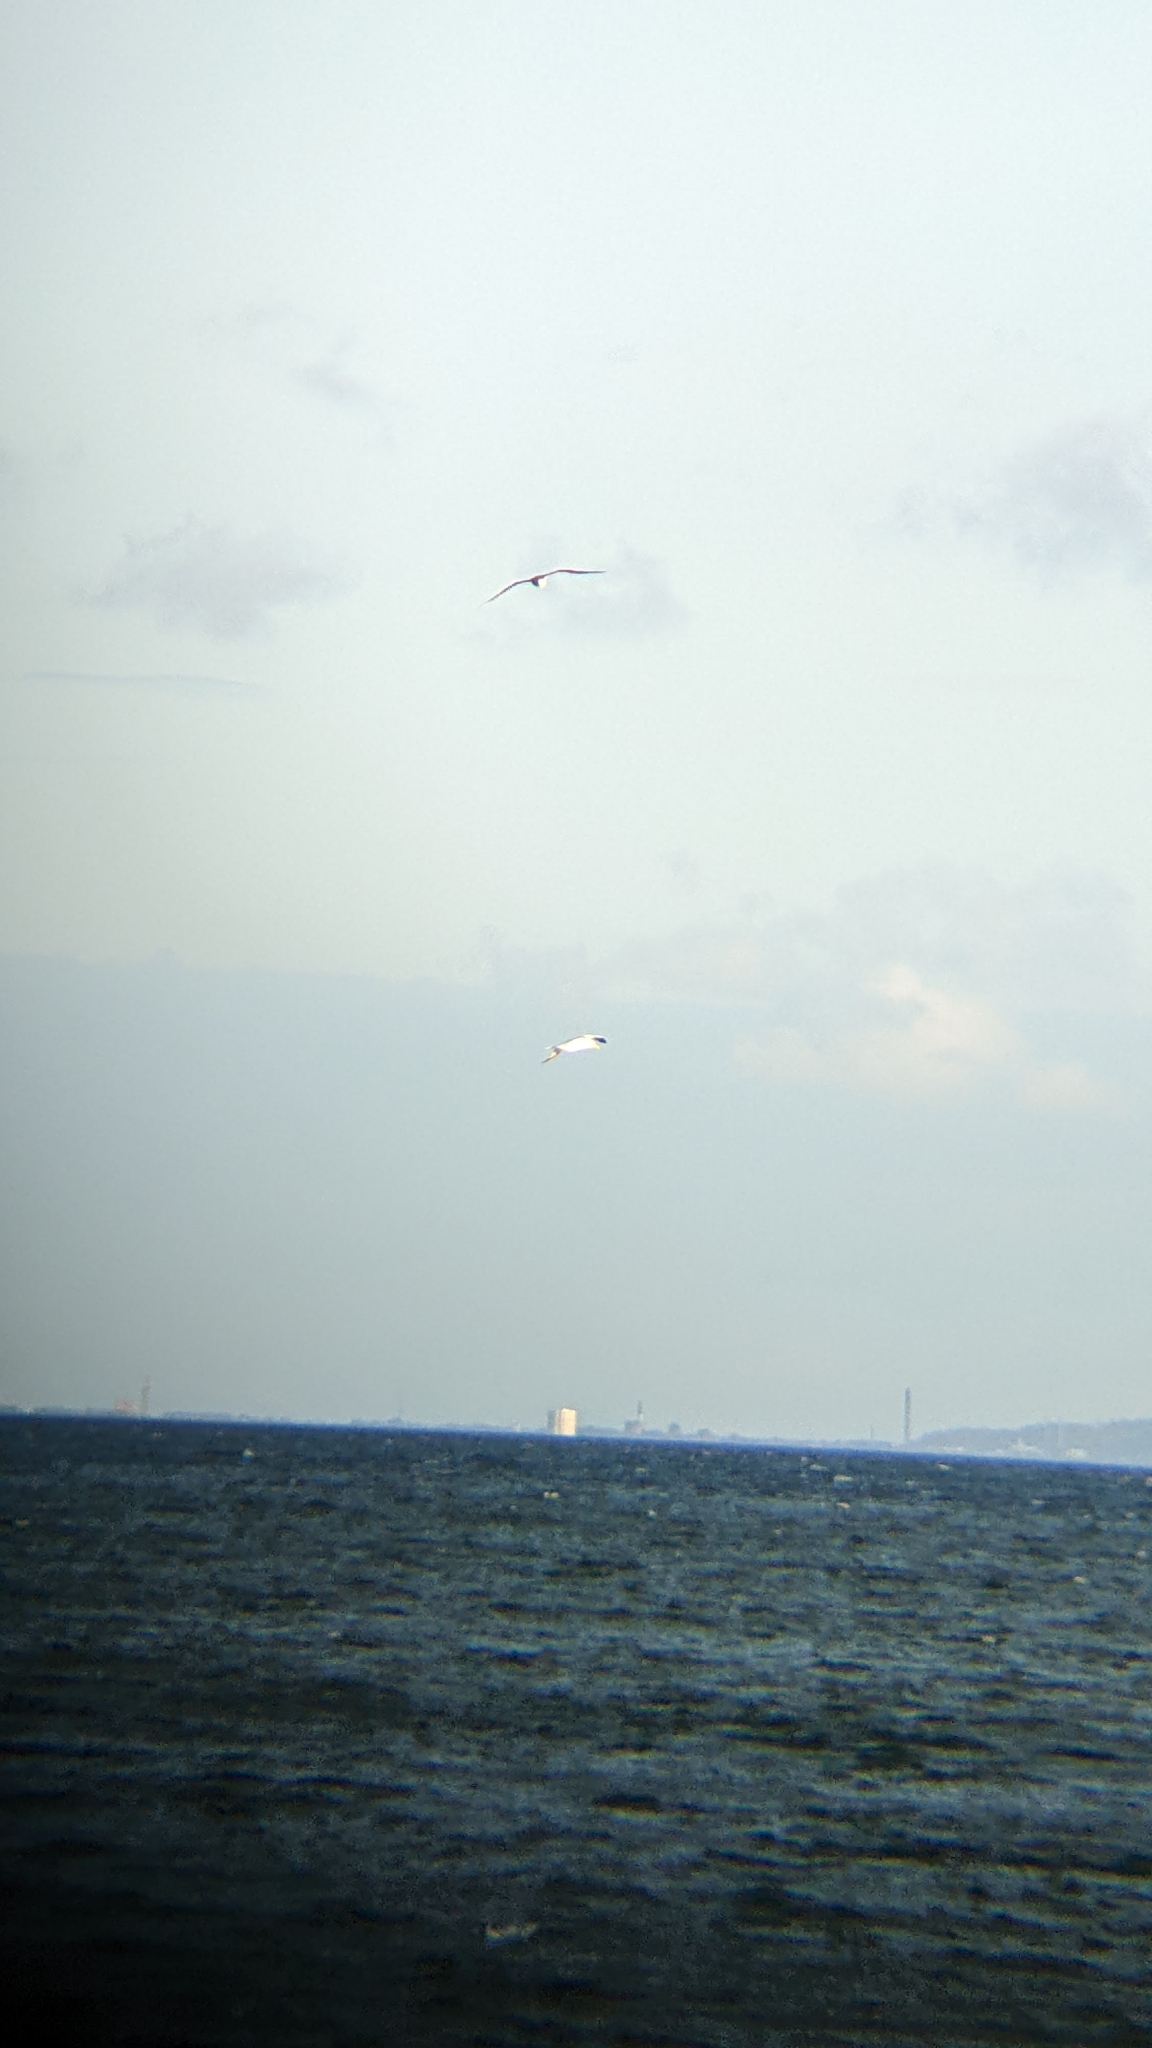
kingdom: Animalia
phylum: Chordata
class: Aves
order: Suliformes
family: Sulidae
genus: Morus
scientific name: Morus bassanus
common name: Northern gannet
